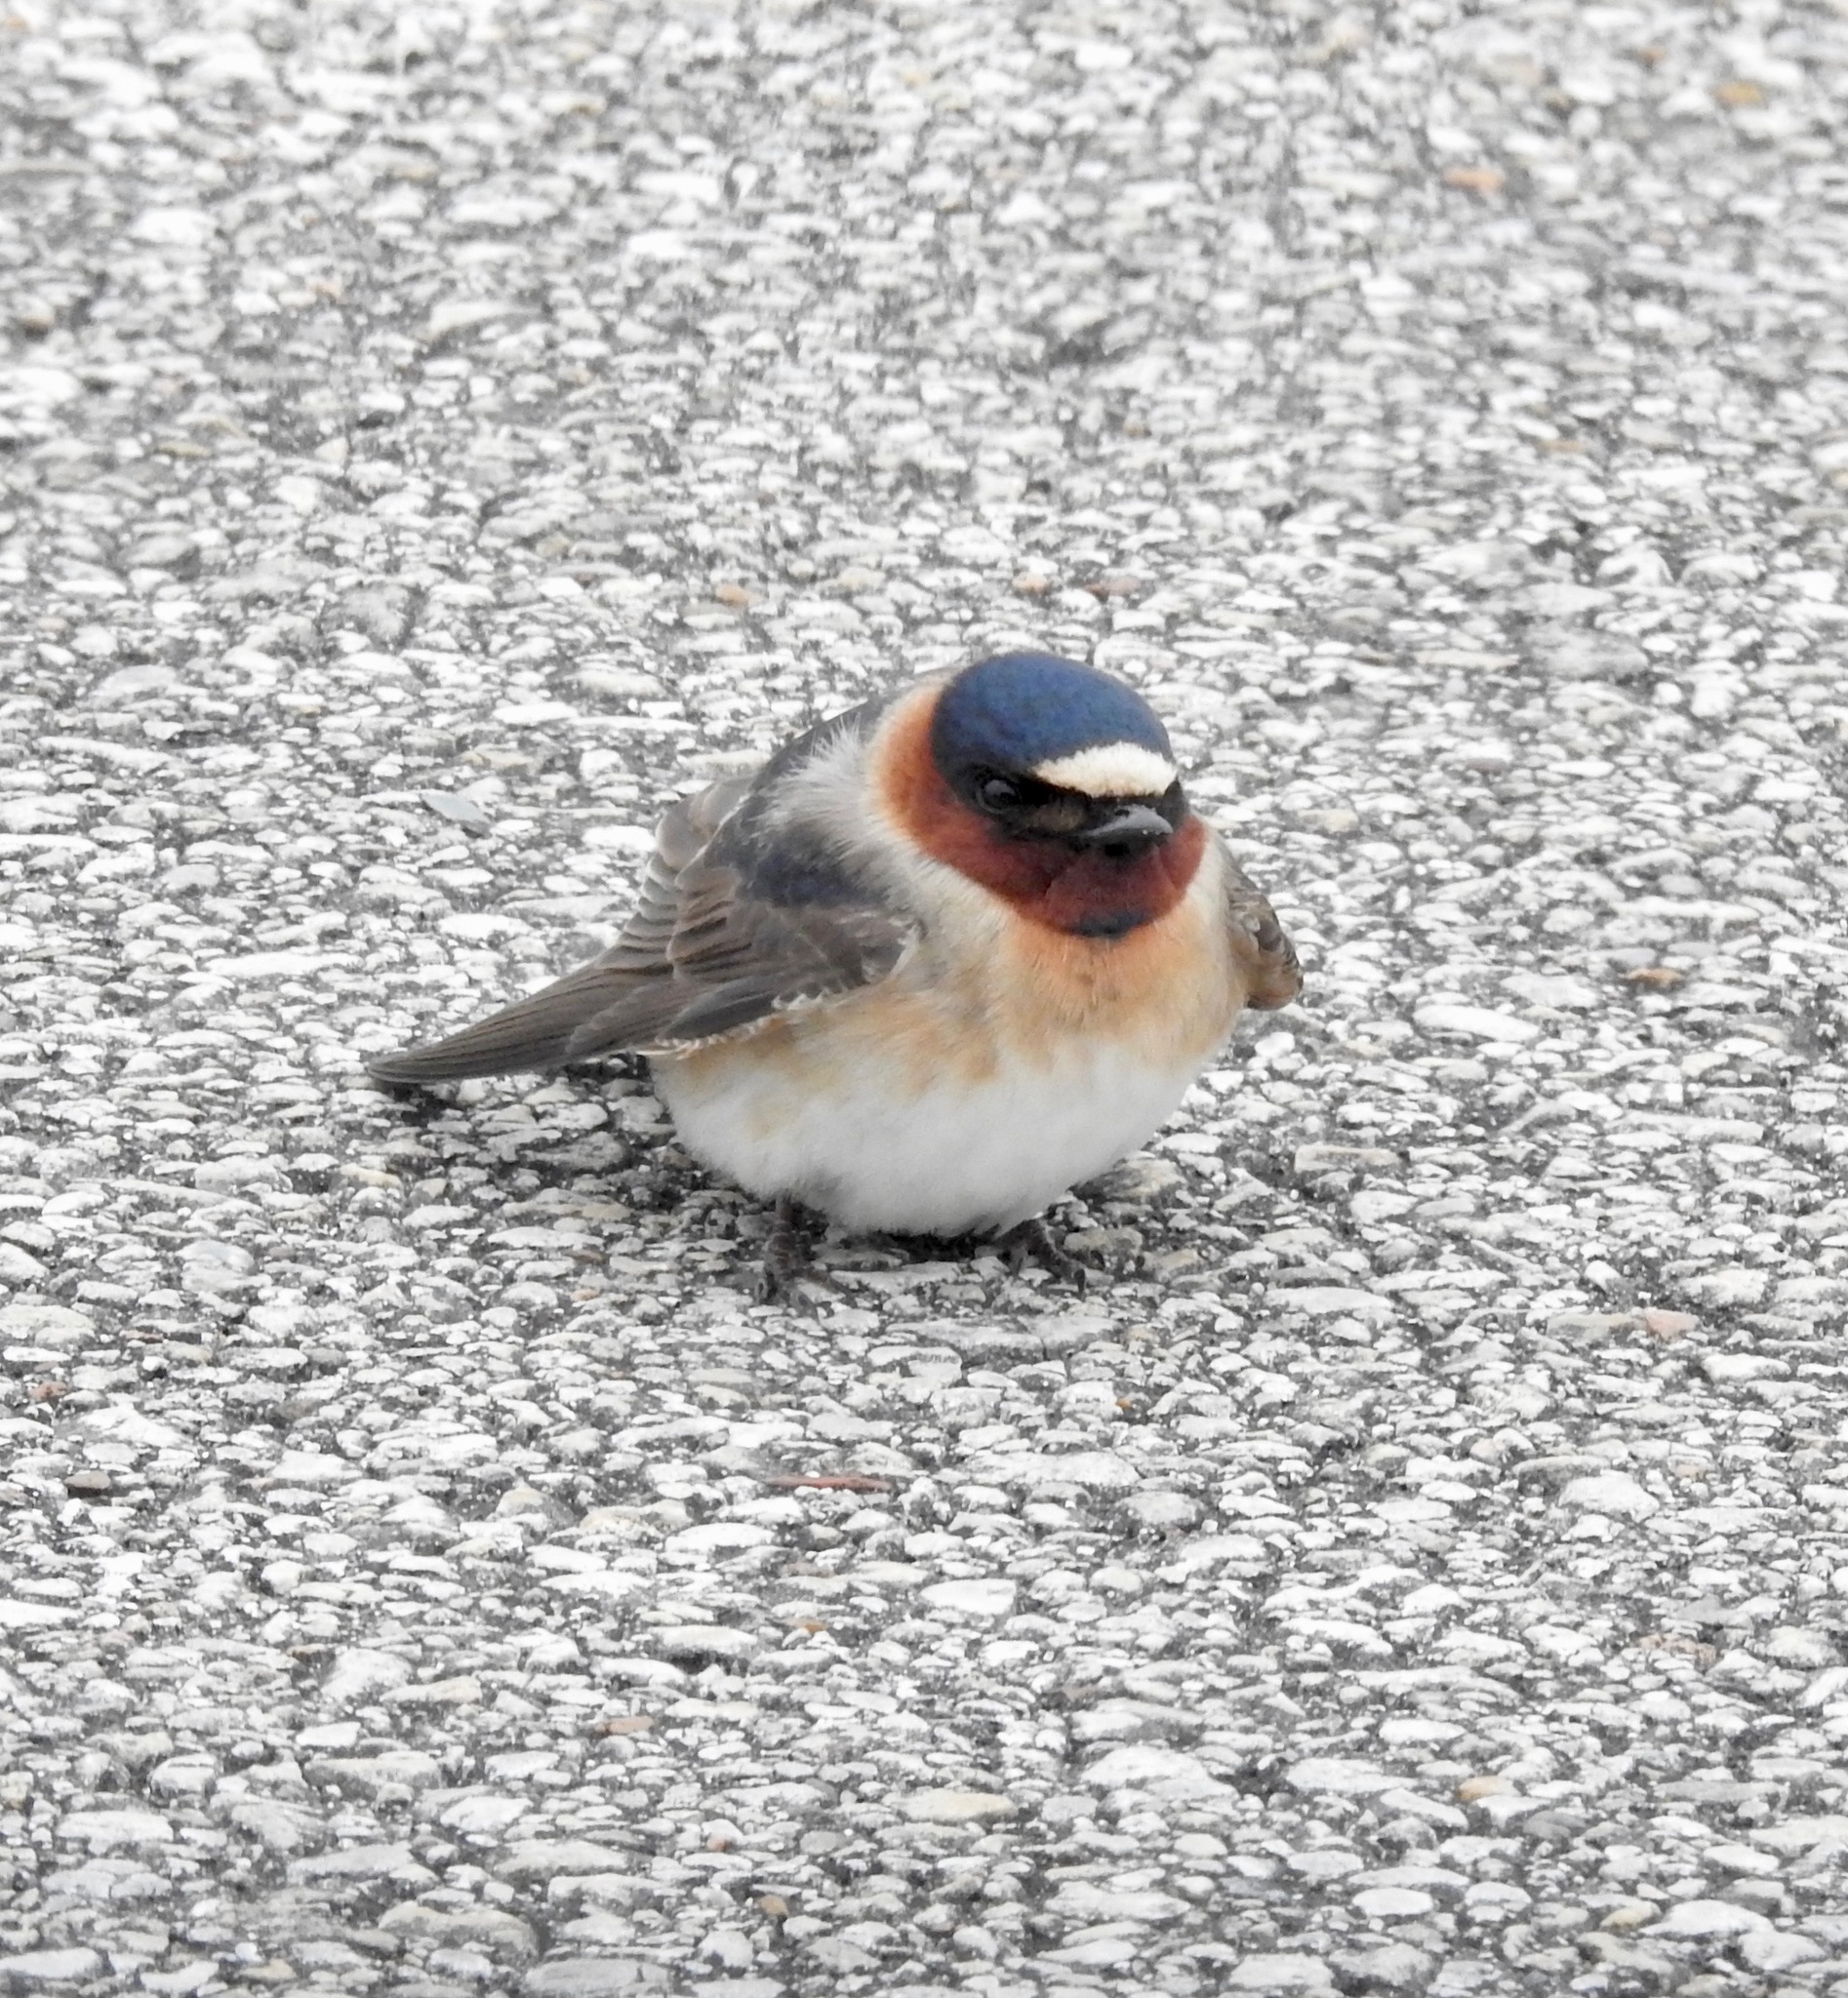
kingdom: Animalia
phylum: Chordata
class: Aves
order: Passeriformes
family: Hirundinidae
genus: Petrochelidon
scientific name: Petrochelidon pyrrhonota
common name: American cliff swallow
